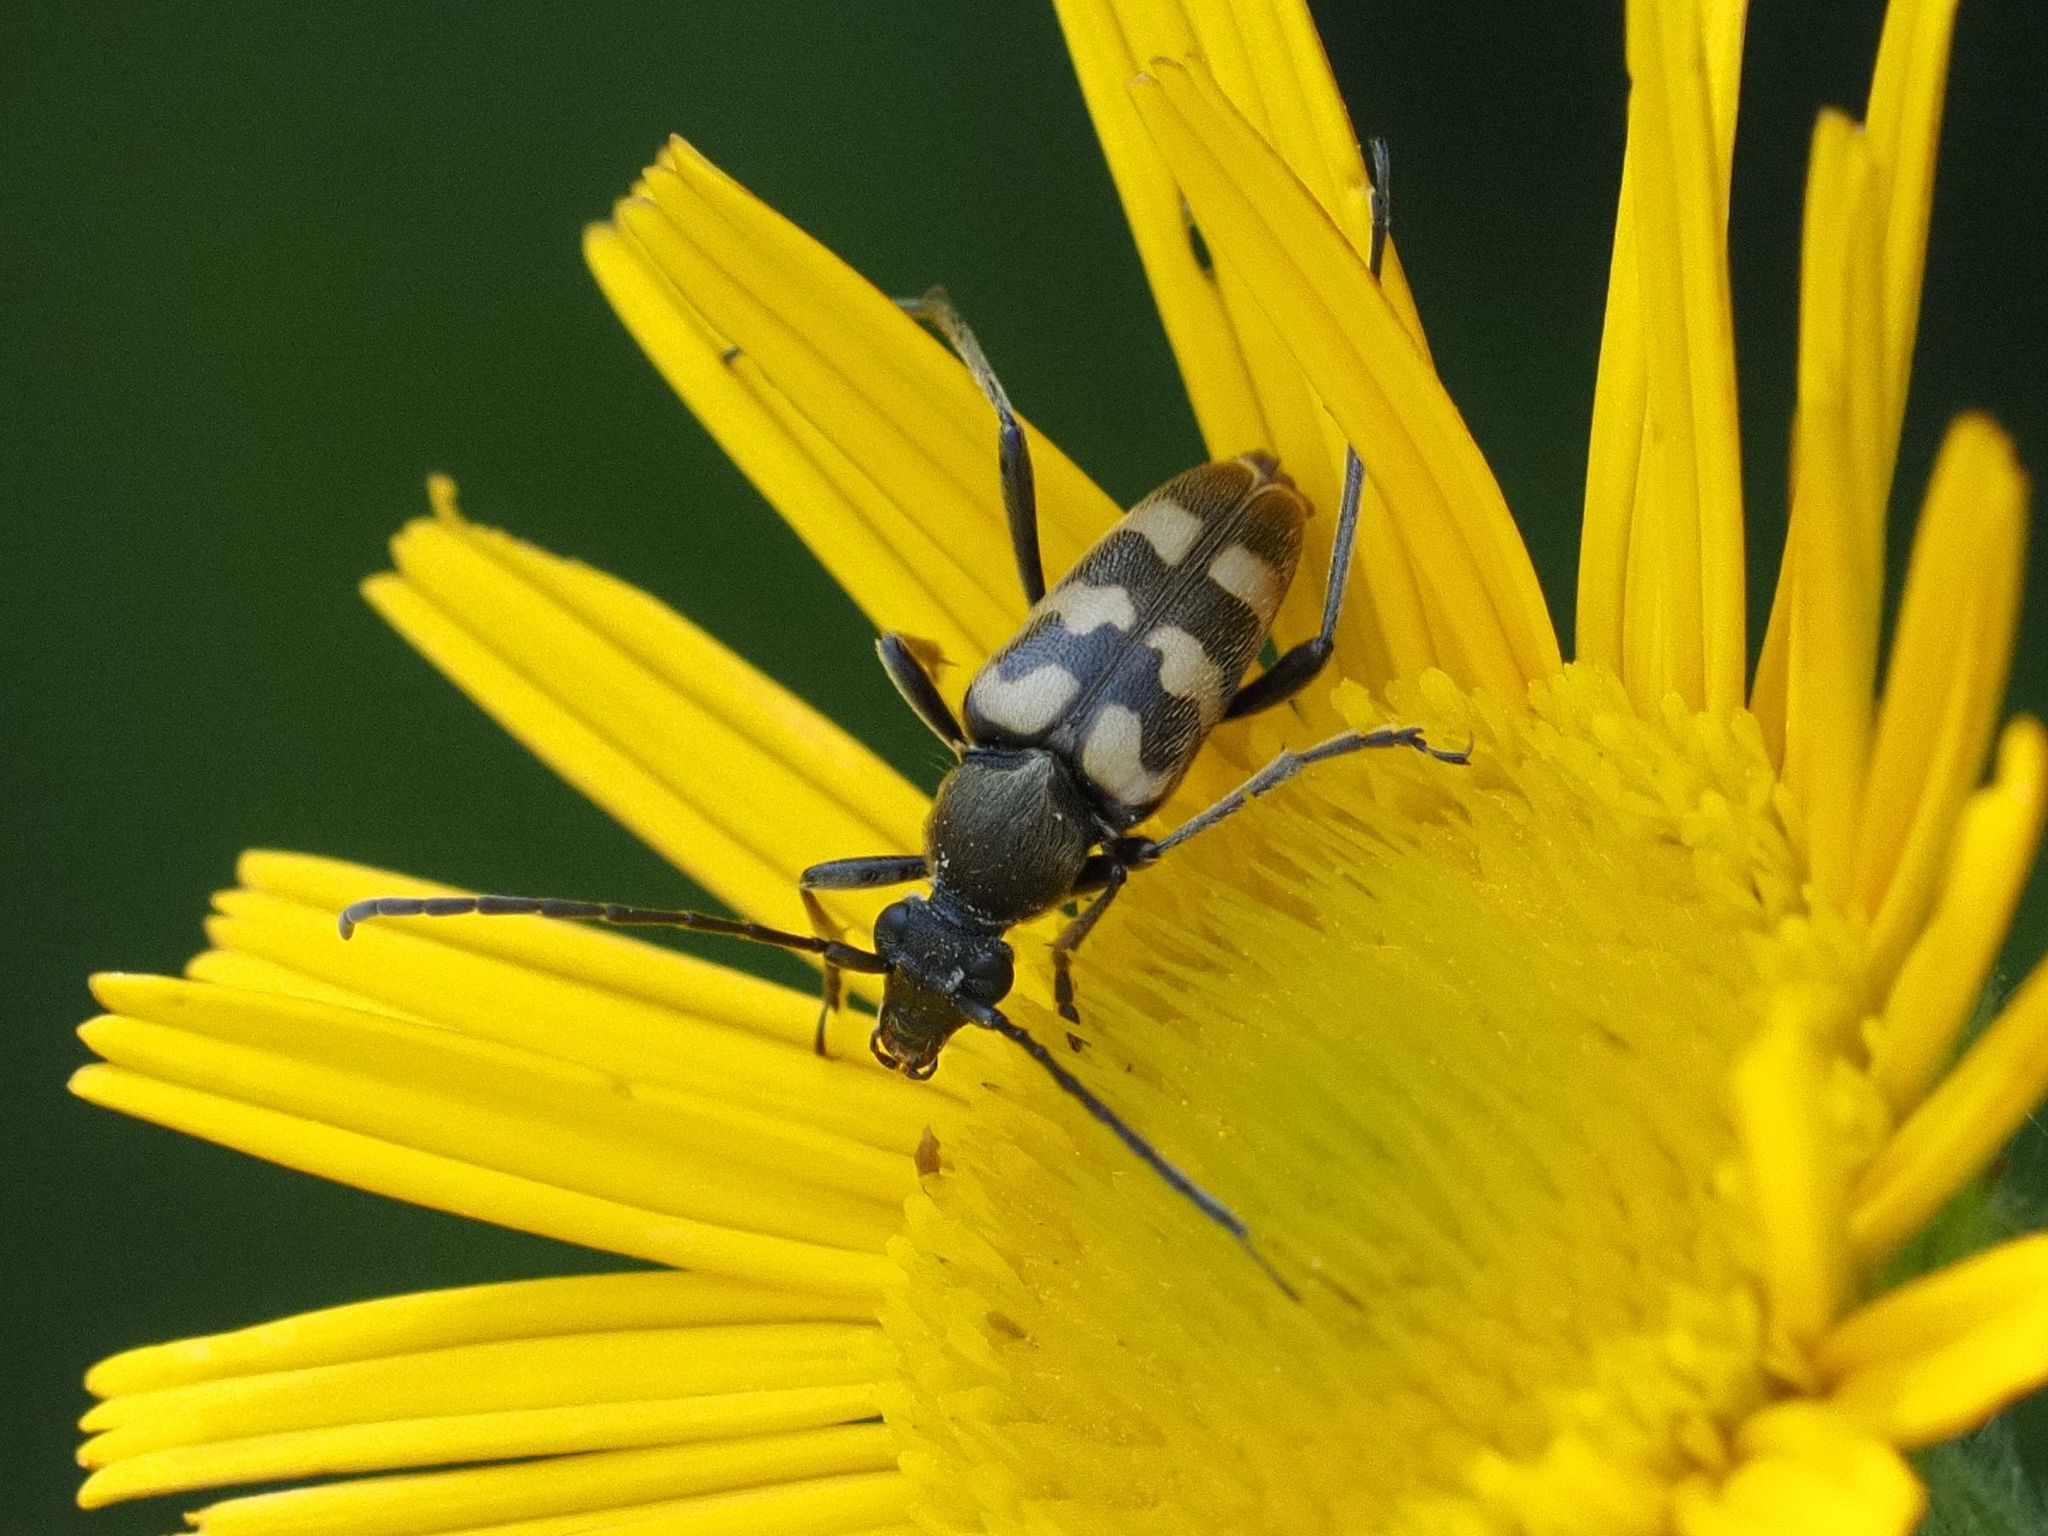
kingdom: Animalia
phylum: Arthropoda
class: Insecta
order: Coleoptera
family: Cerambycidae
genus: Pachytodes
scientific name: Pachytodes
